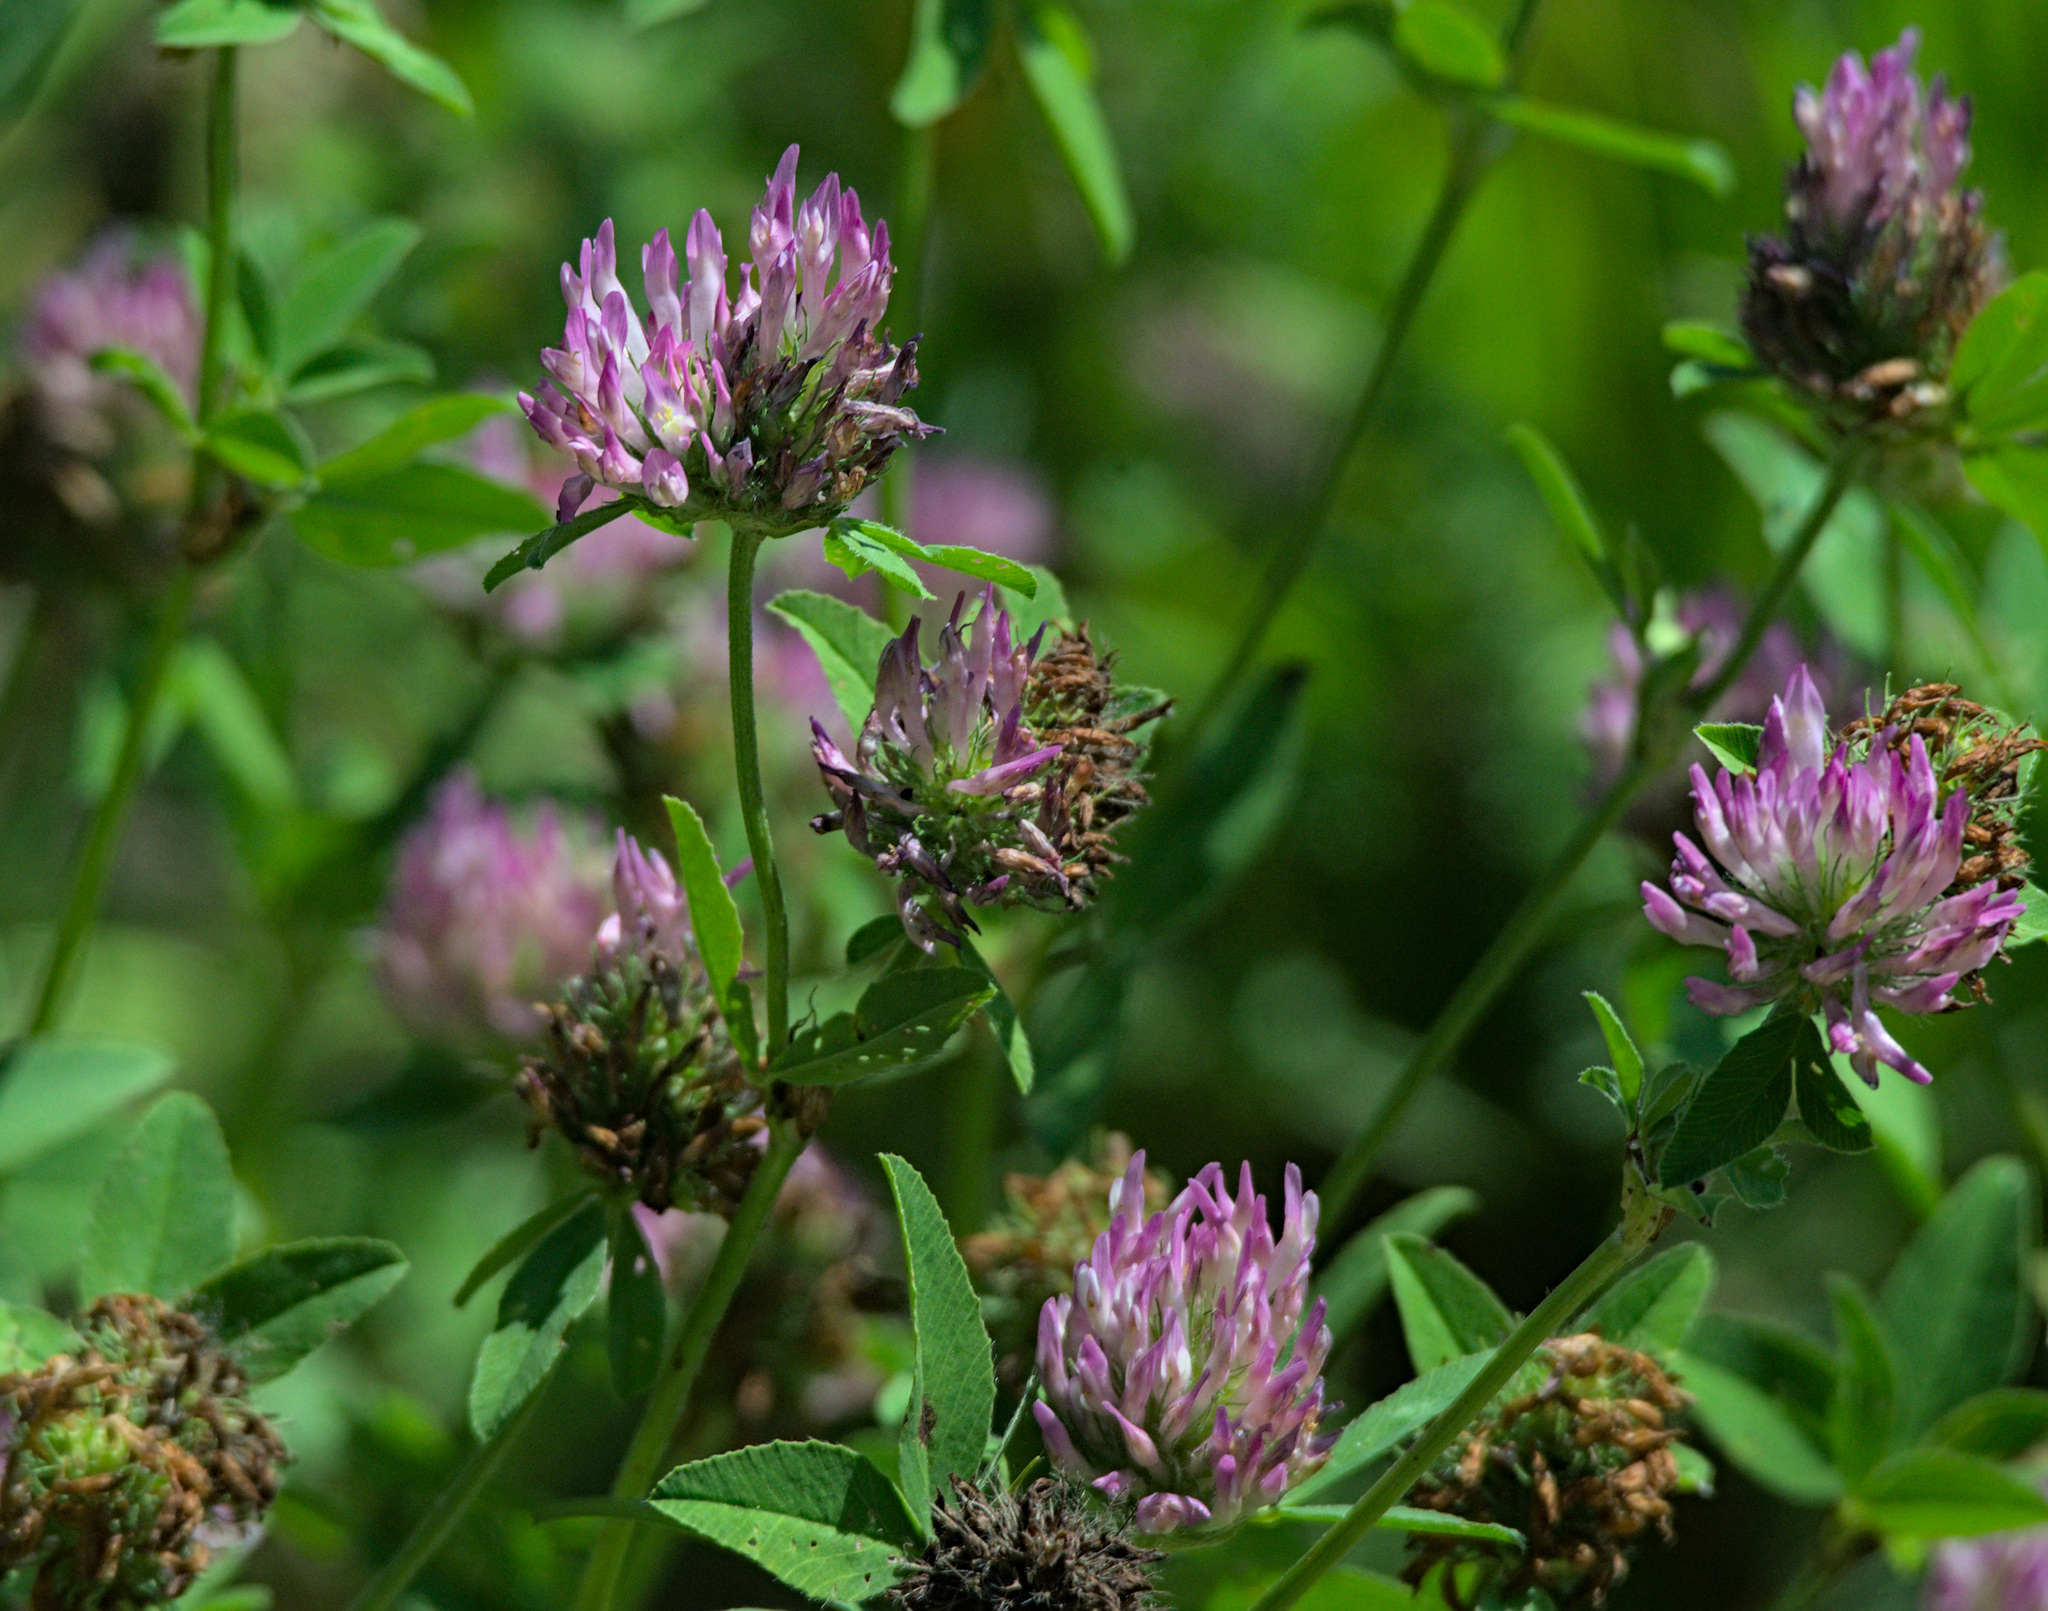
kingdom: Plantae
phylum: Tracheophyta
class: Magnoliopsida
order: Fabales
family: Fabaceae
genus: Trifolium
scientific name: Trifolium pratense
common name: Red clover
